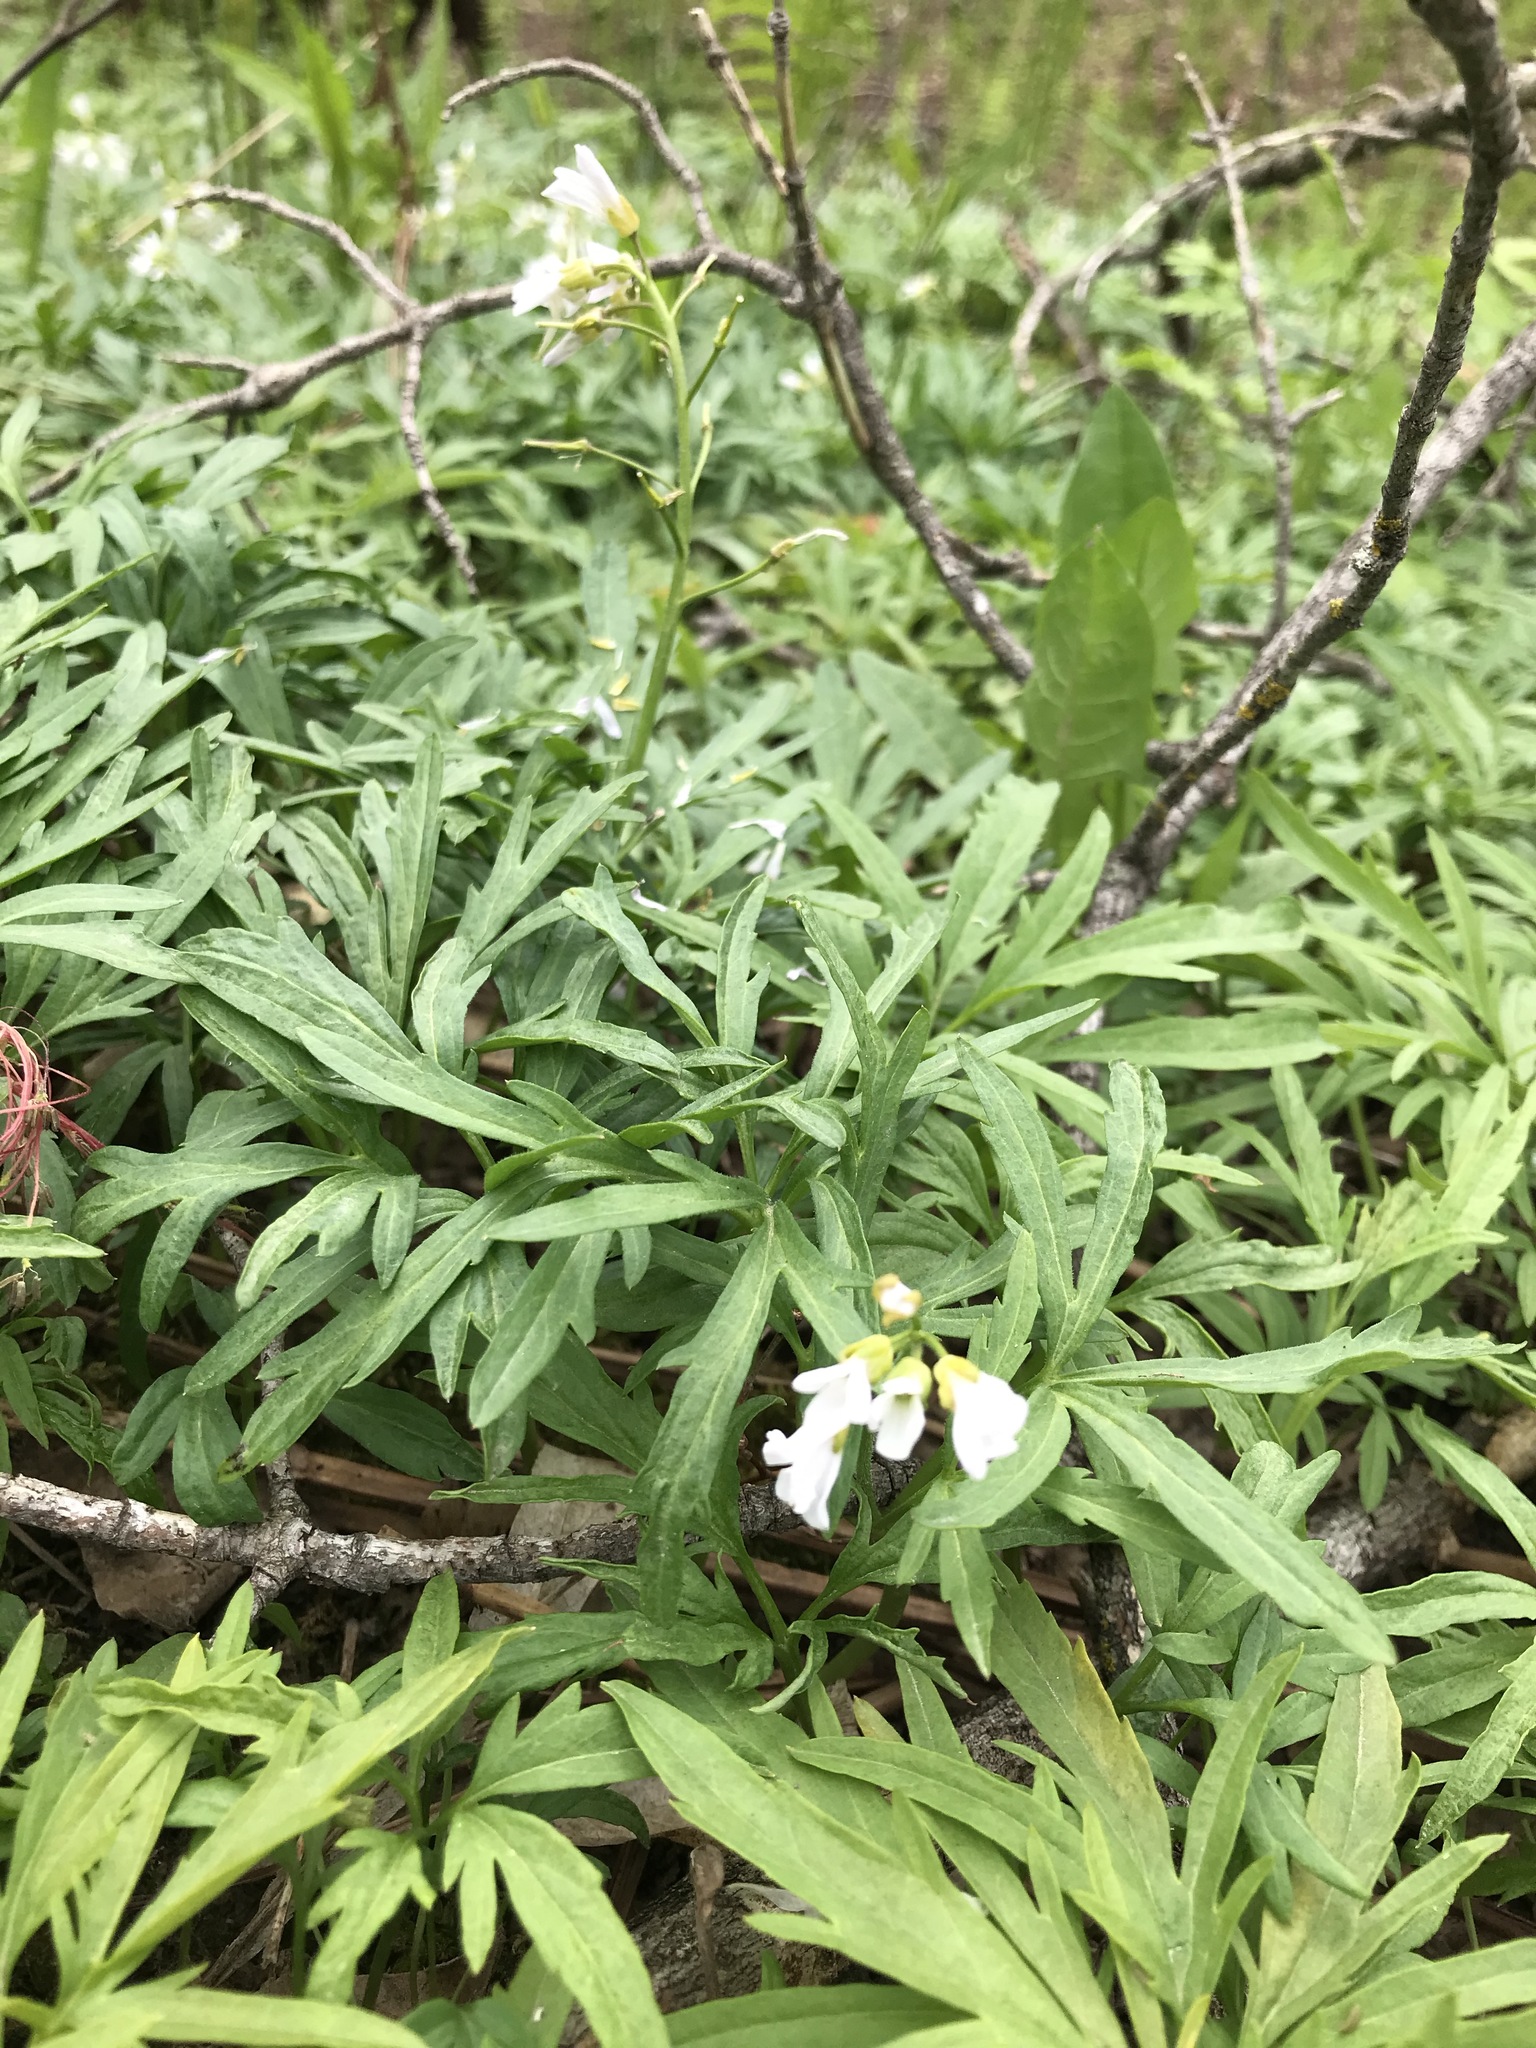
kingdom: Plantae
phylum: Tracheophyta
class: Magnoliopsida
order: Brassicales
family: Brassicaceae
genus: Cardamine
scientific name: Cardamine concatenata
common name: Cut-leaf toothcup
